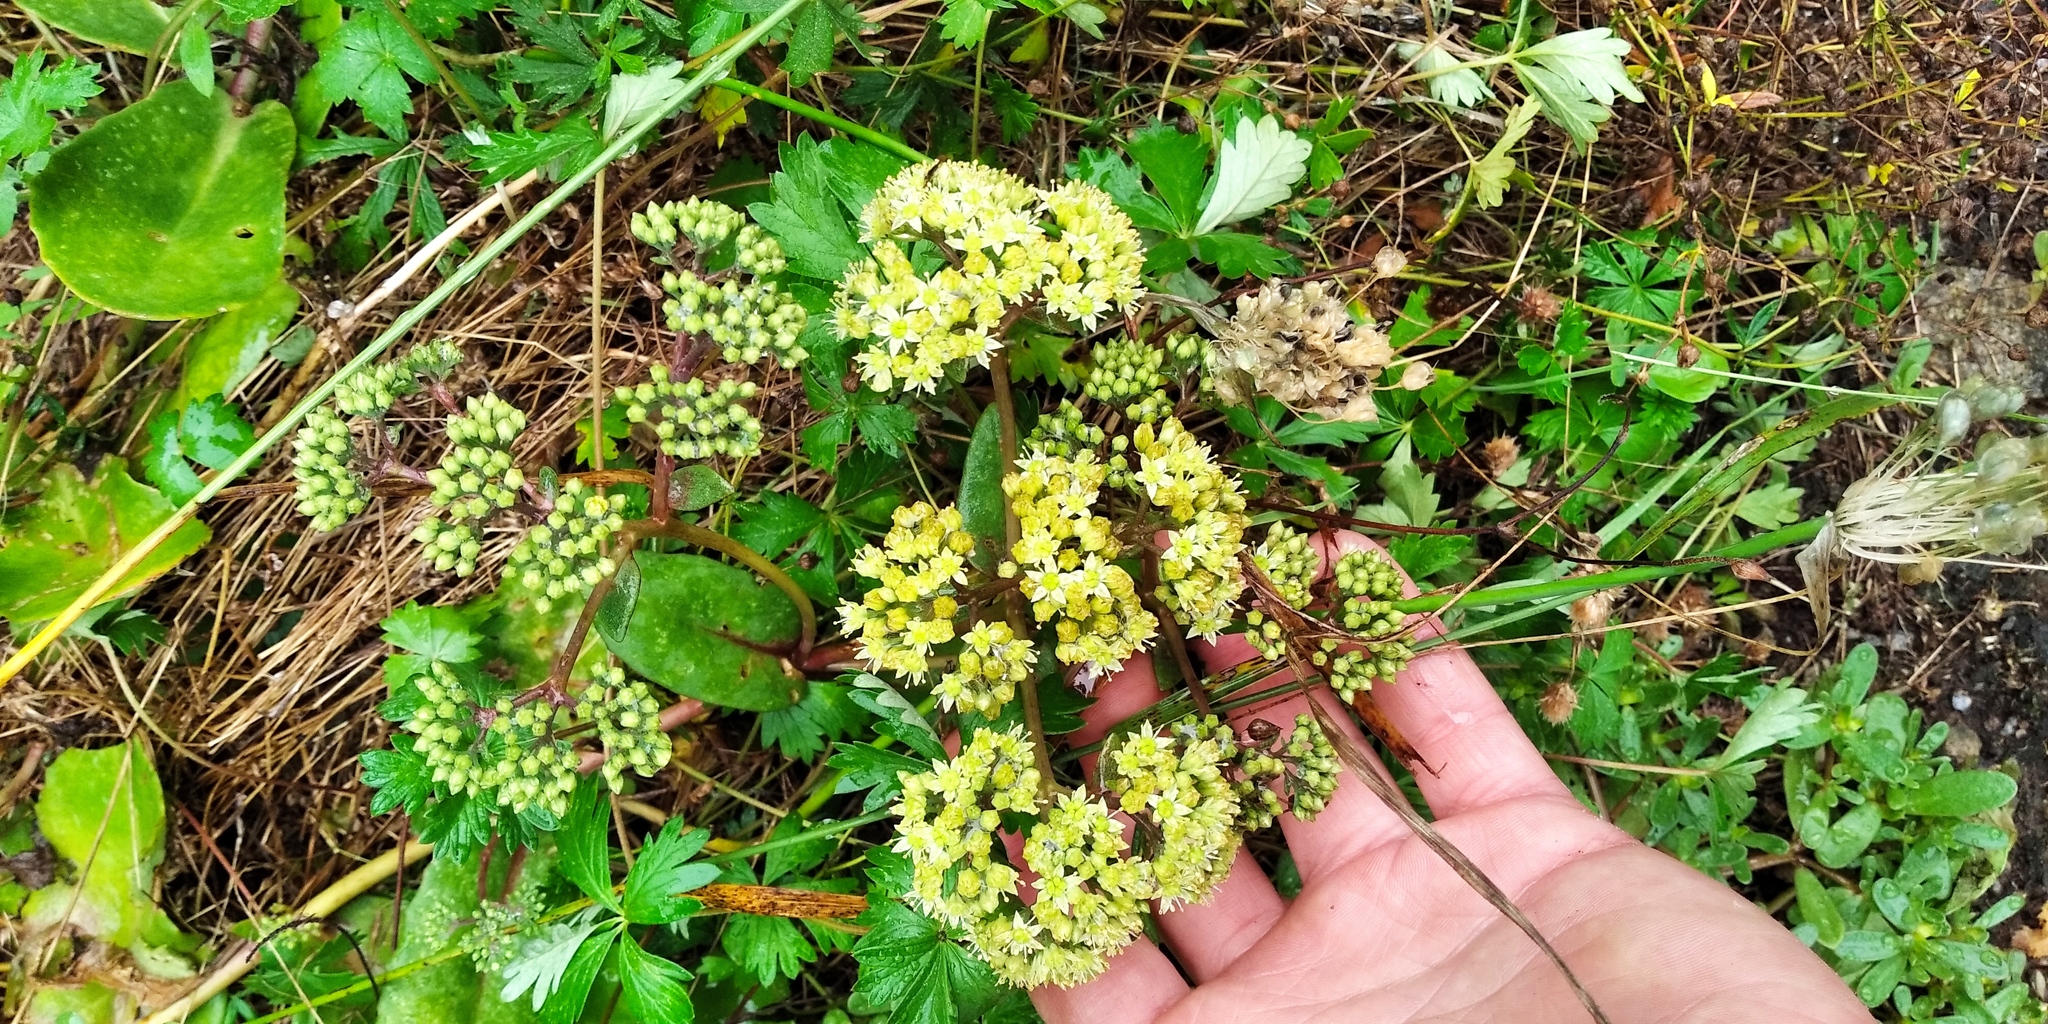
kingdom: Plantae
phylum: Tracheophyta
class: Magnoliopsida
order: Saxifragales
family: Crassulaceae
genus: Hylotelephium
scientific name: Hylotelephium maximum
